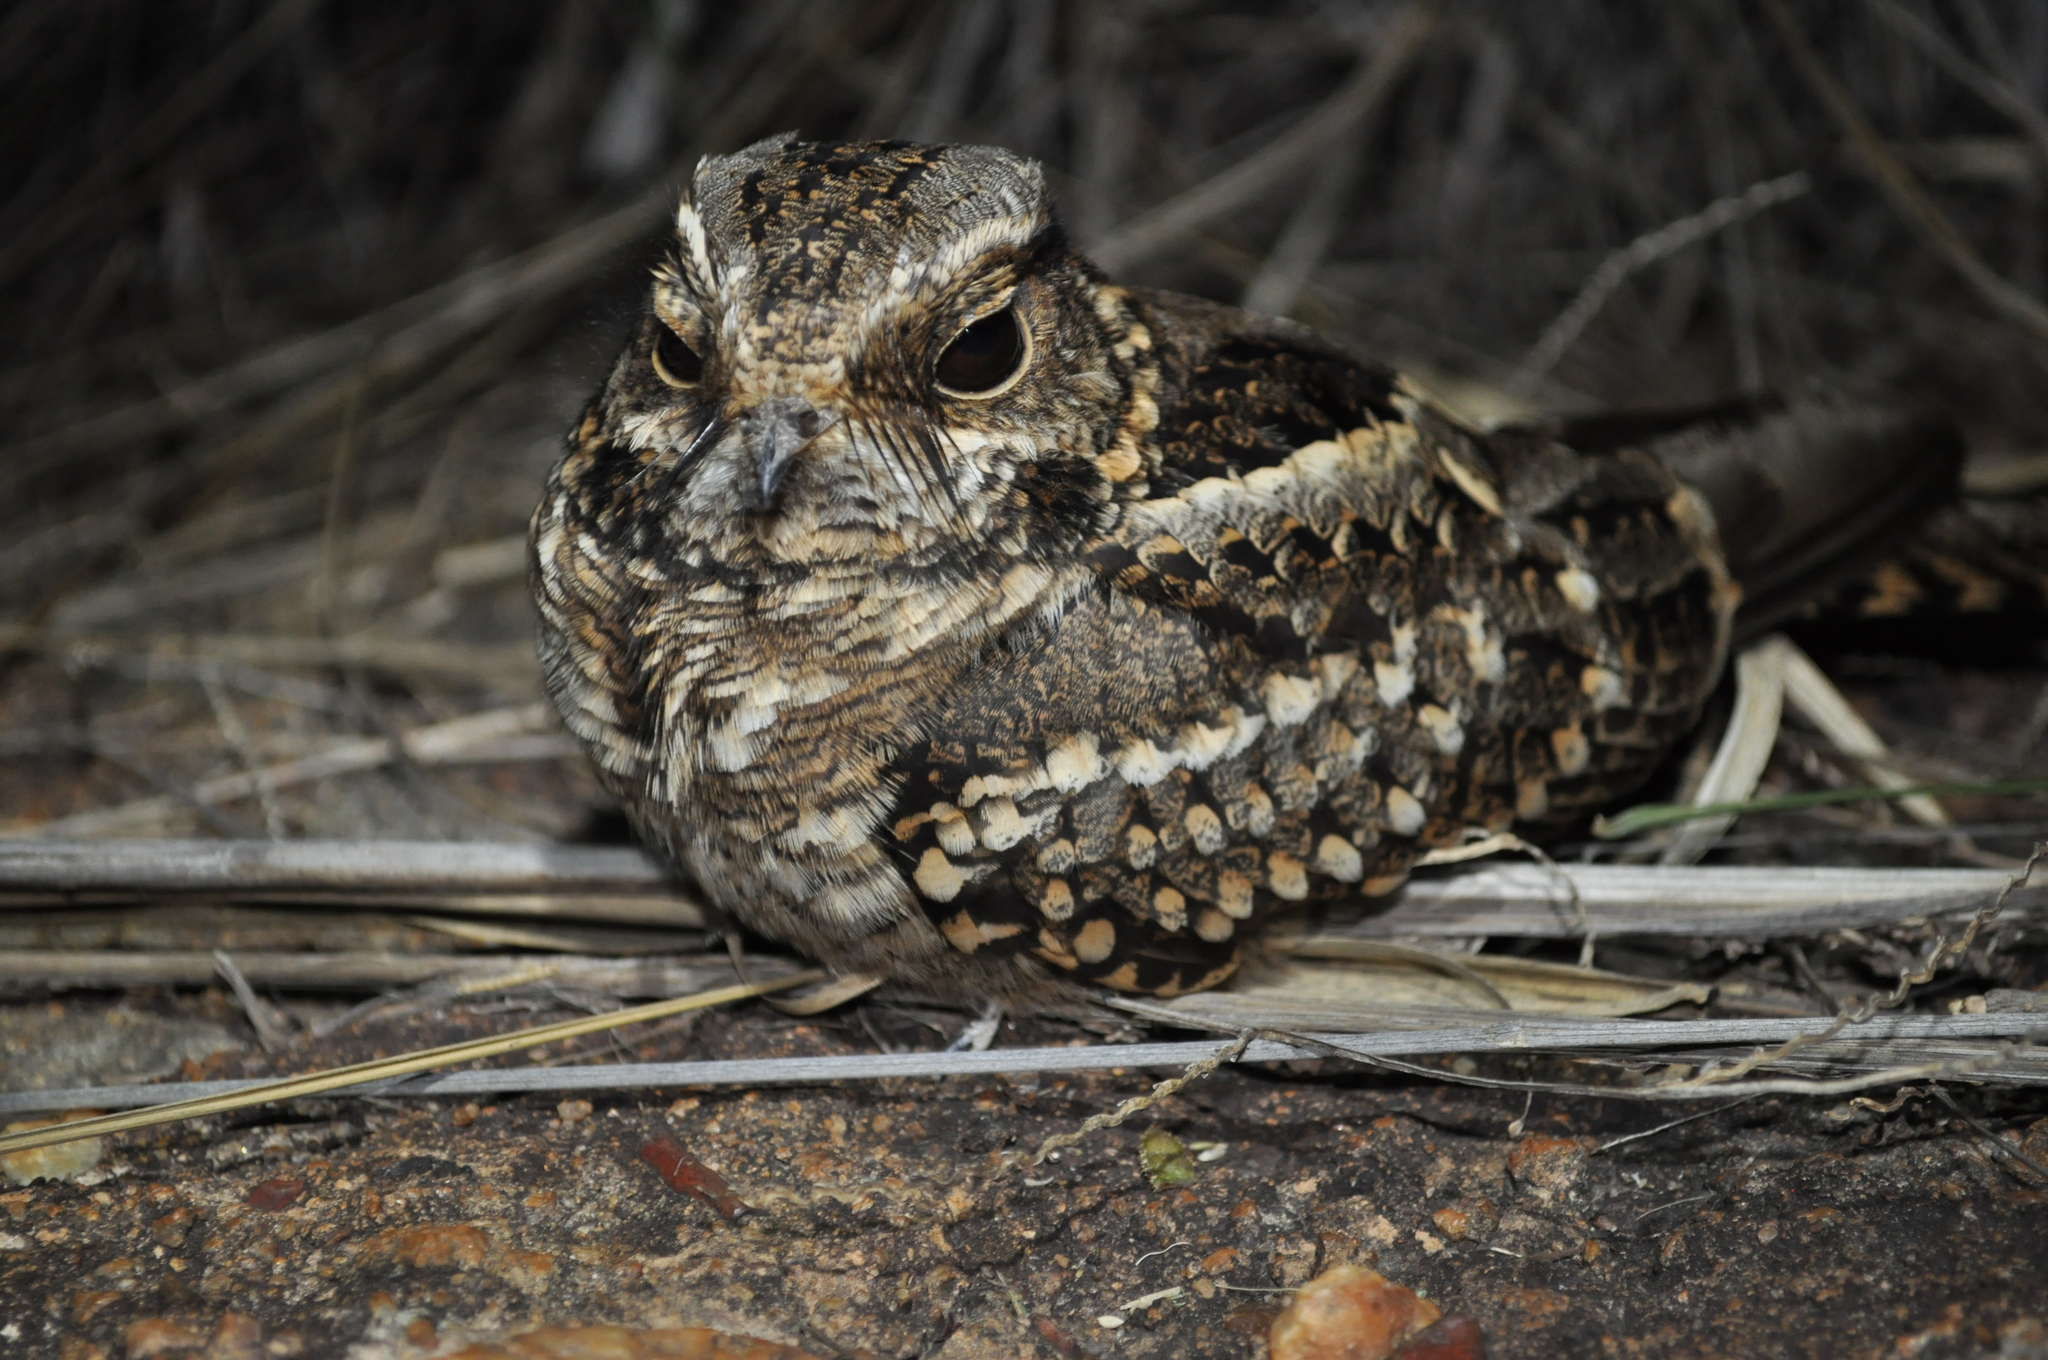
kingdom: Animalia
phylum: Chordata
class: Aves
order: Caprimulgiformes
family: Caprimulgidae
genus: Setopagis
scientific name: Setopagis parvula
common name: Little nightjar
